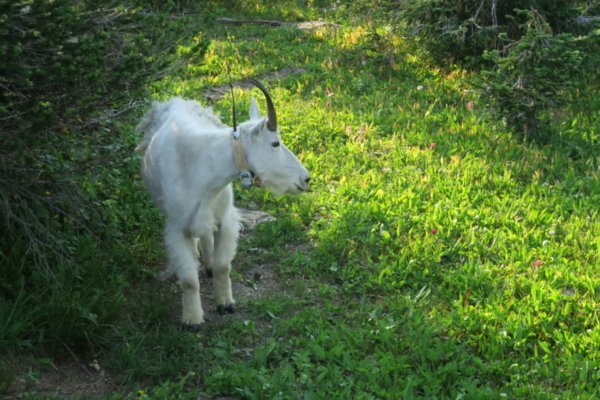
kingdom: Animalia
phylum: Chordata
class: Mammalia
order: Artiodactyla
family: Bovidae
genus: Oreamnos
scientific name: Oreamnos americanus
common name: Mountain goat
